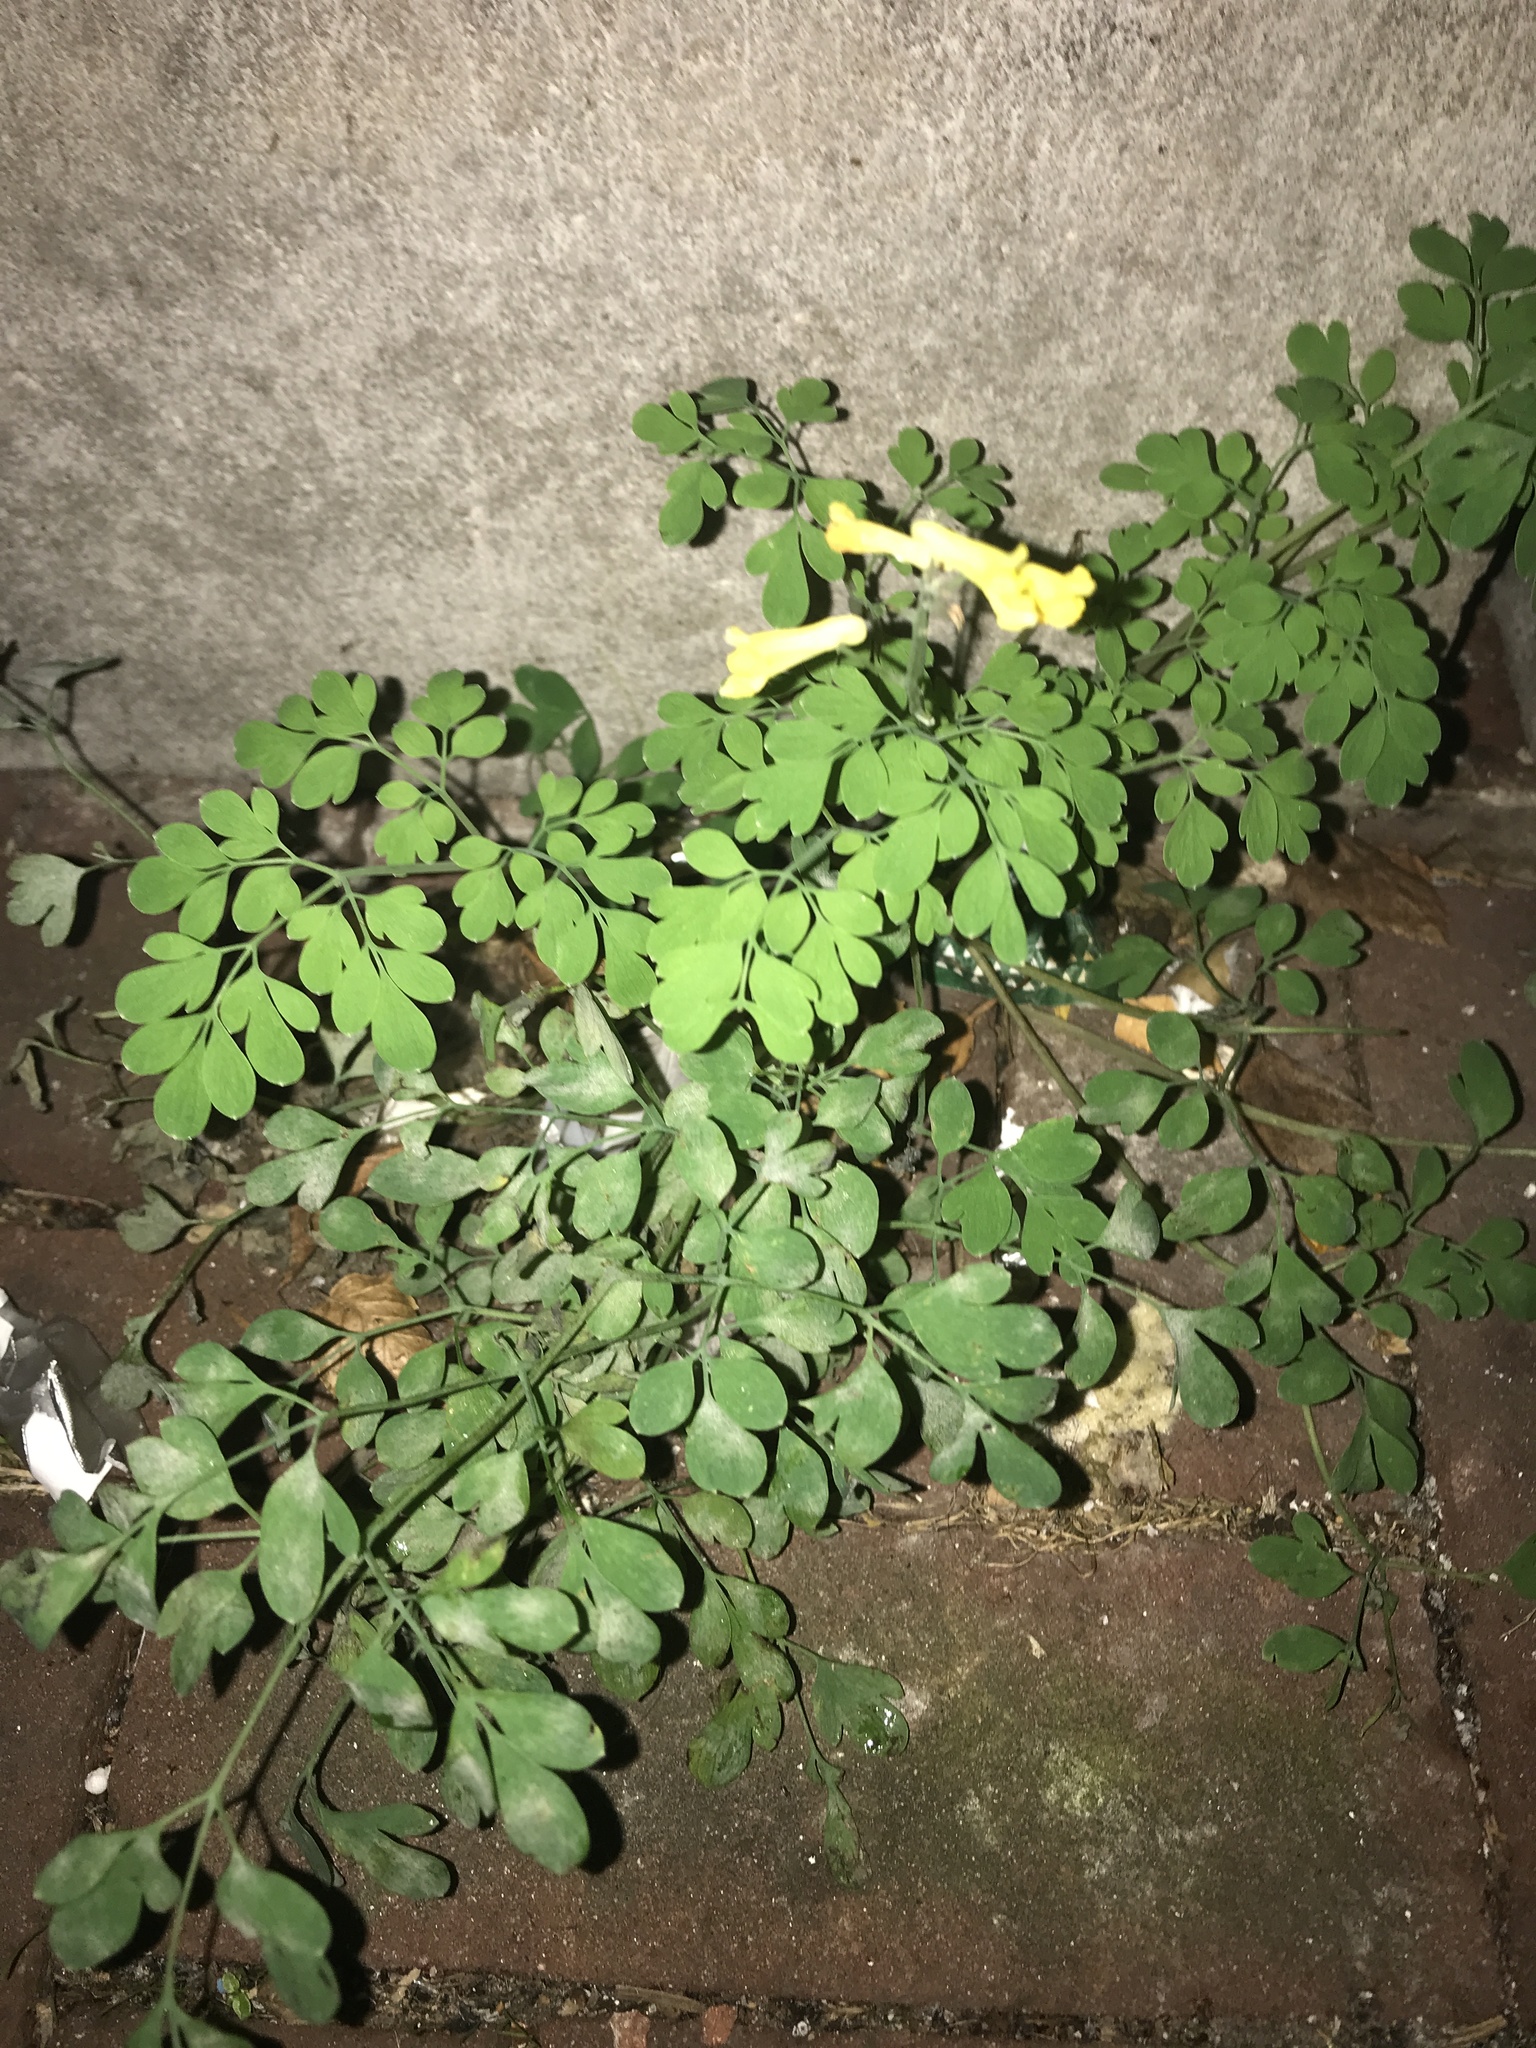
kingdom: Plantae
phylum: Tracheophyta
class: Magnoliopsida
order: Ranunculales
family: Papaveraceae
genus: Pseudofumaria
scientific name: Pseudofumaria lutea
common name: Yellow corydalis
